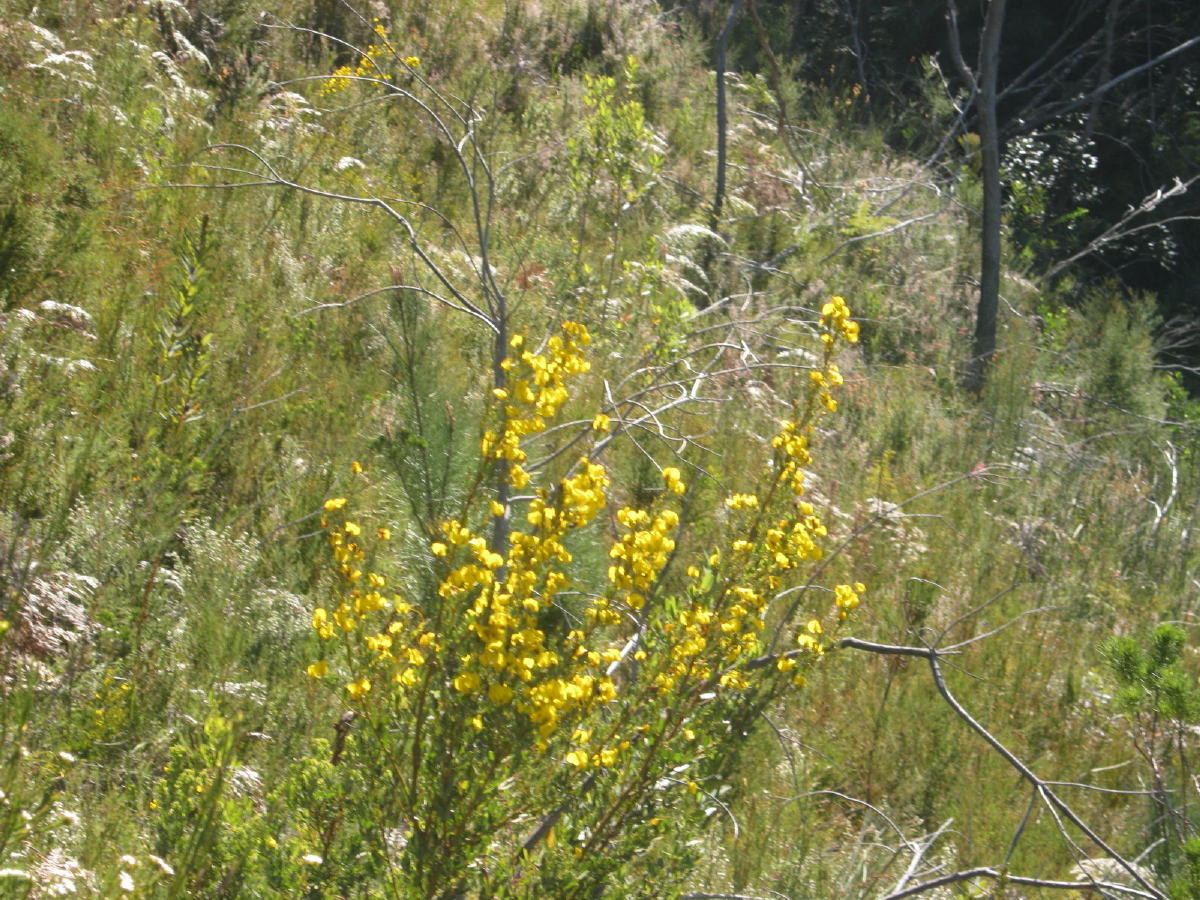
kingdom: Plantae
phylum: Tracheophyta
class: Magnoliopsida
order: Fabales
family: Fabaceae
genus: Cyclopia
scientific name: Cyclopia subternata
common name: Honeybush tea
